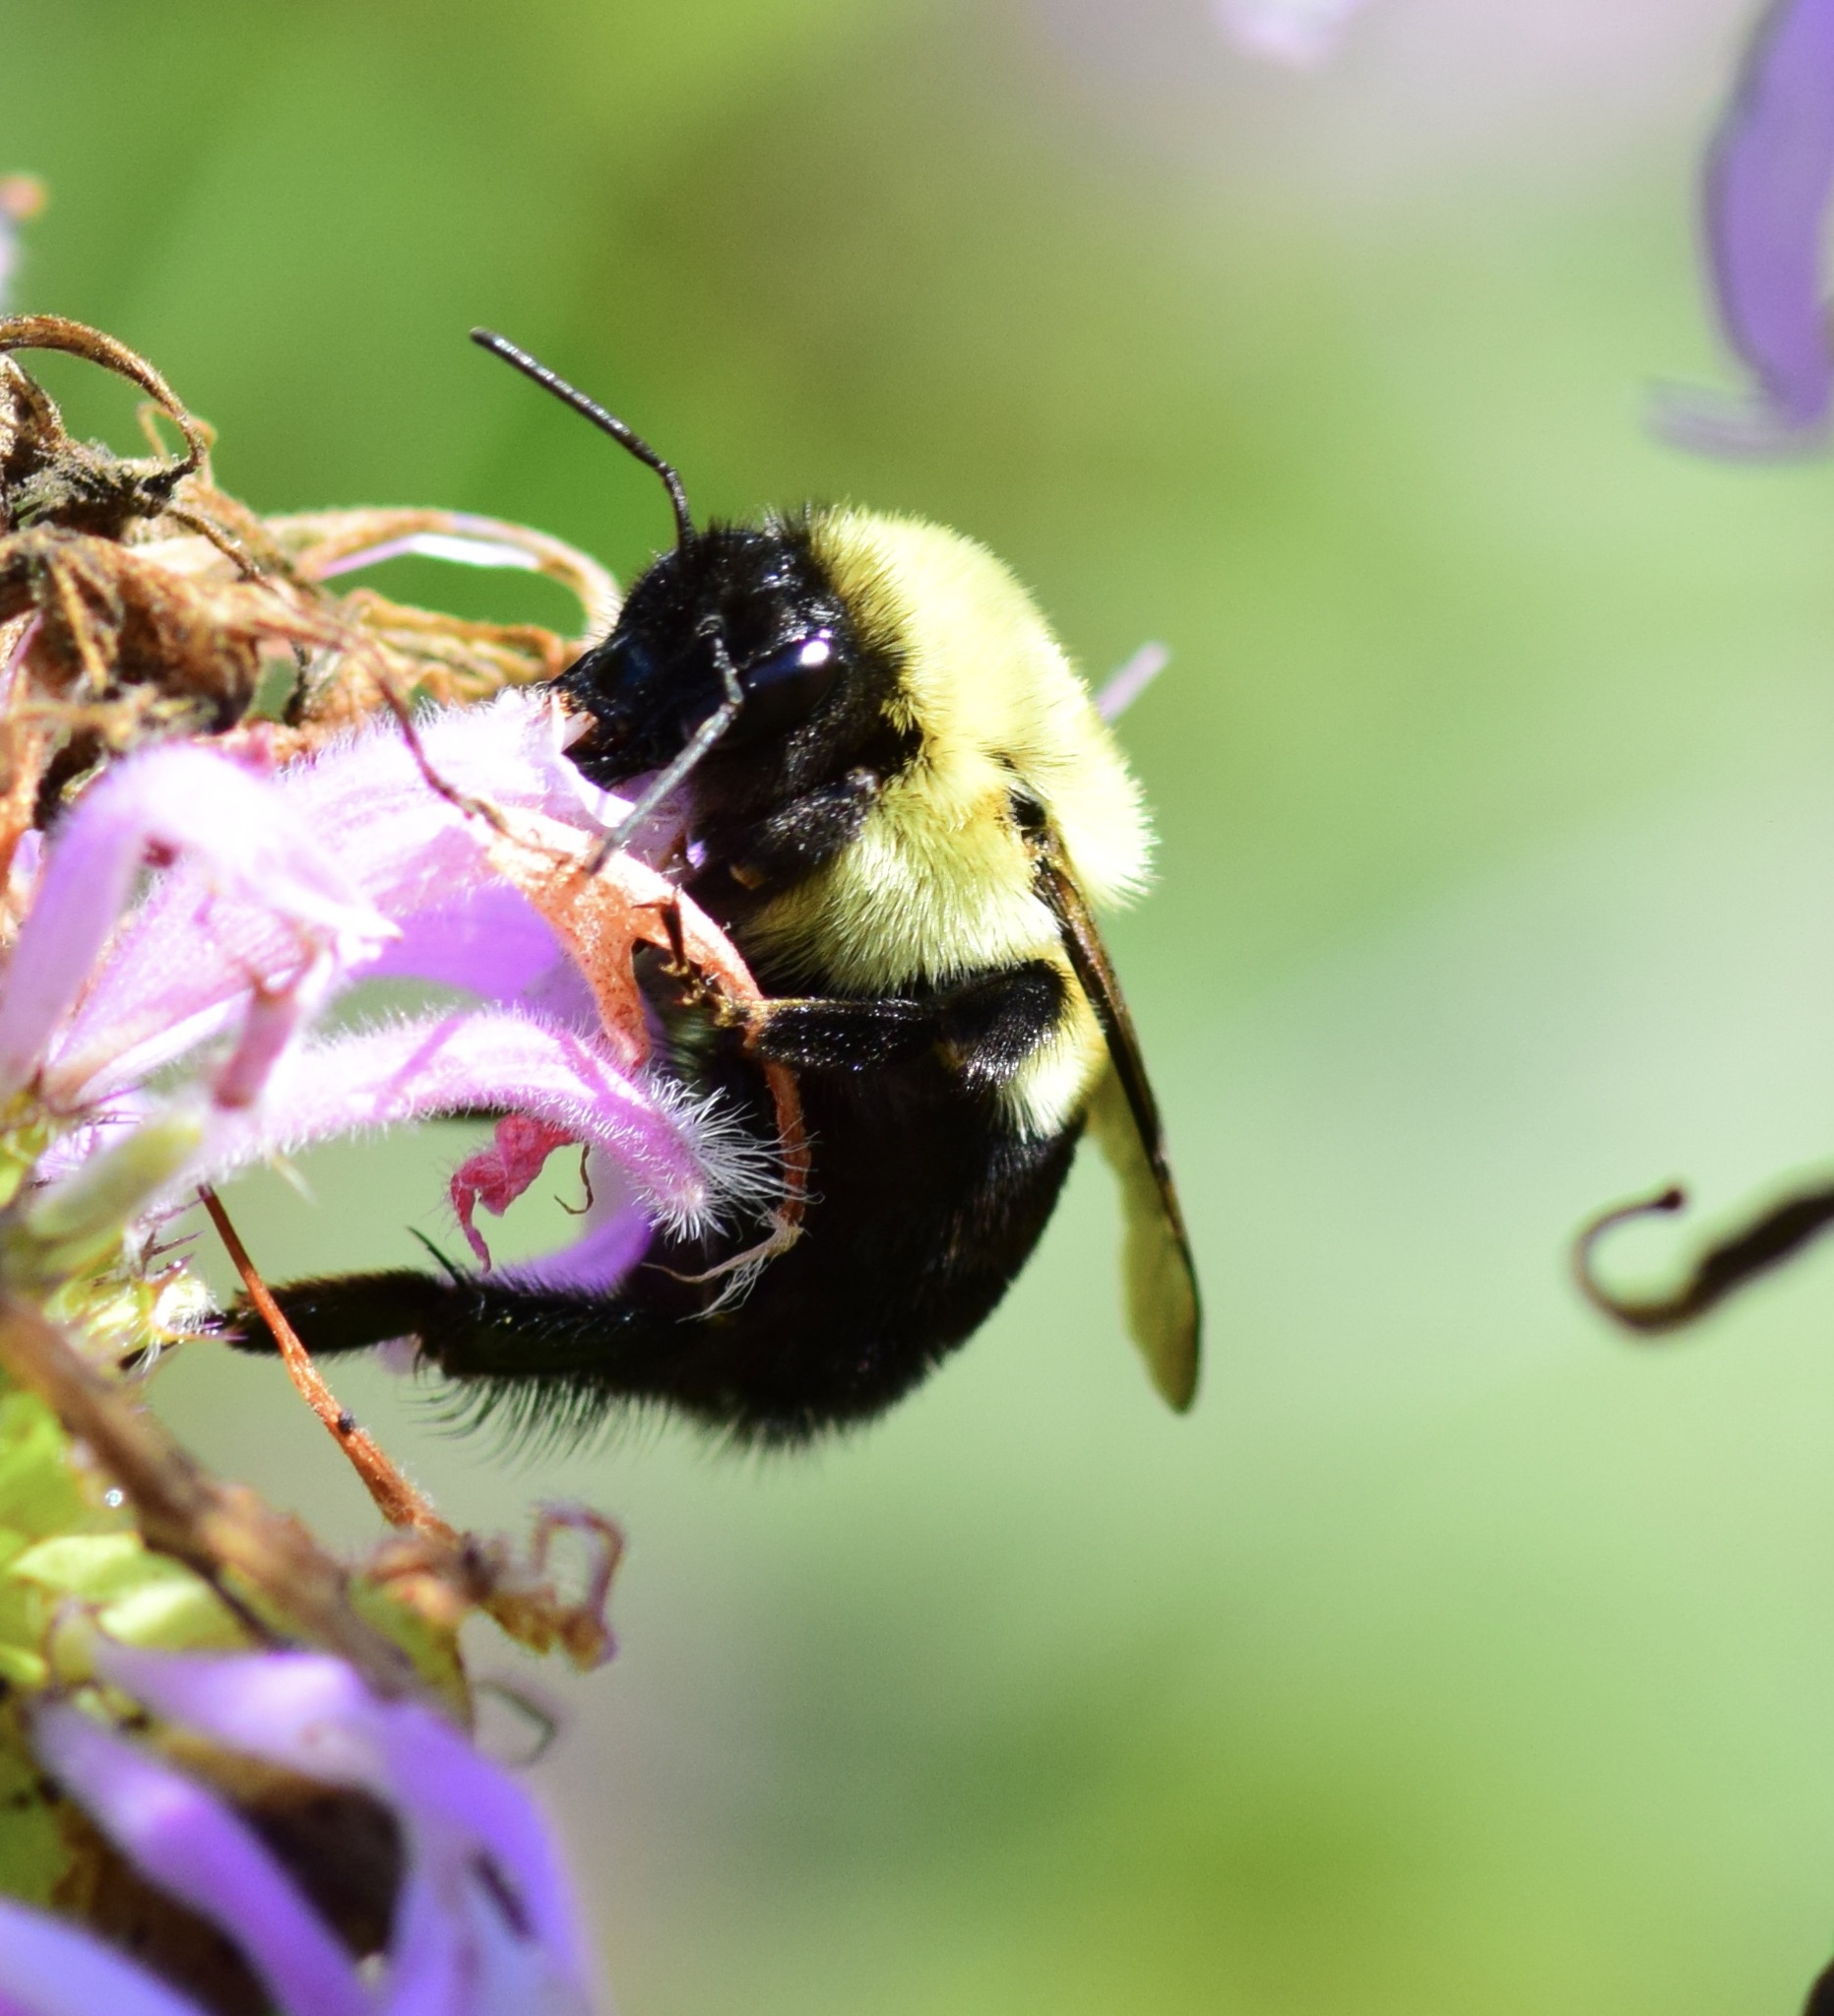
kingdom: Animalia
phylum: Arthropoda
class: Insecta
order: Hymenoptera
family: Apidae
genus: Bombus
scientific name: Bombus impatiens
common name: Common eastern bumble bee
